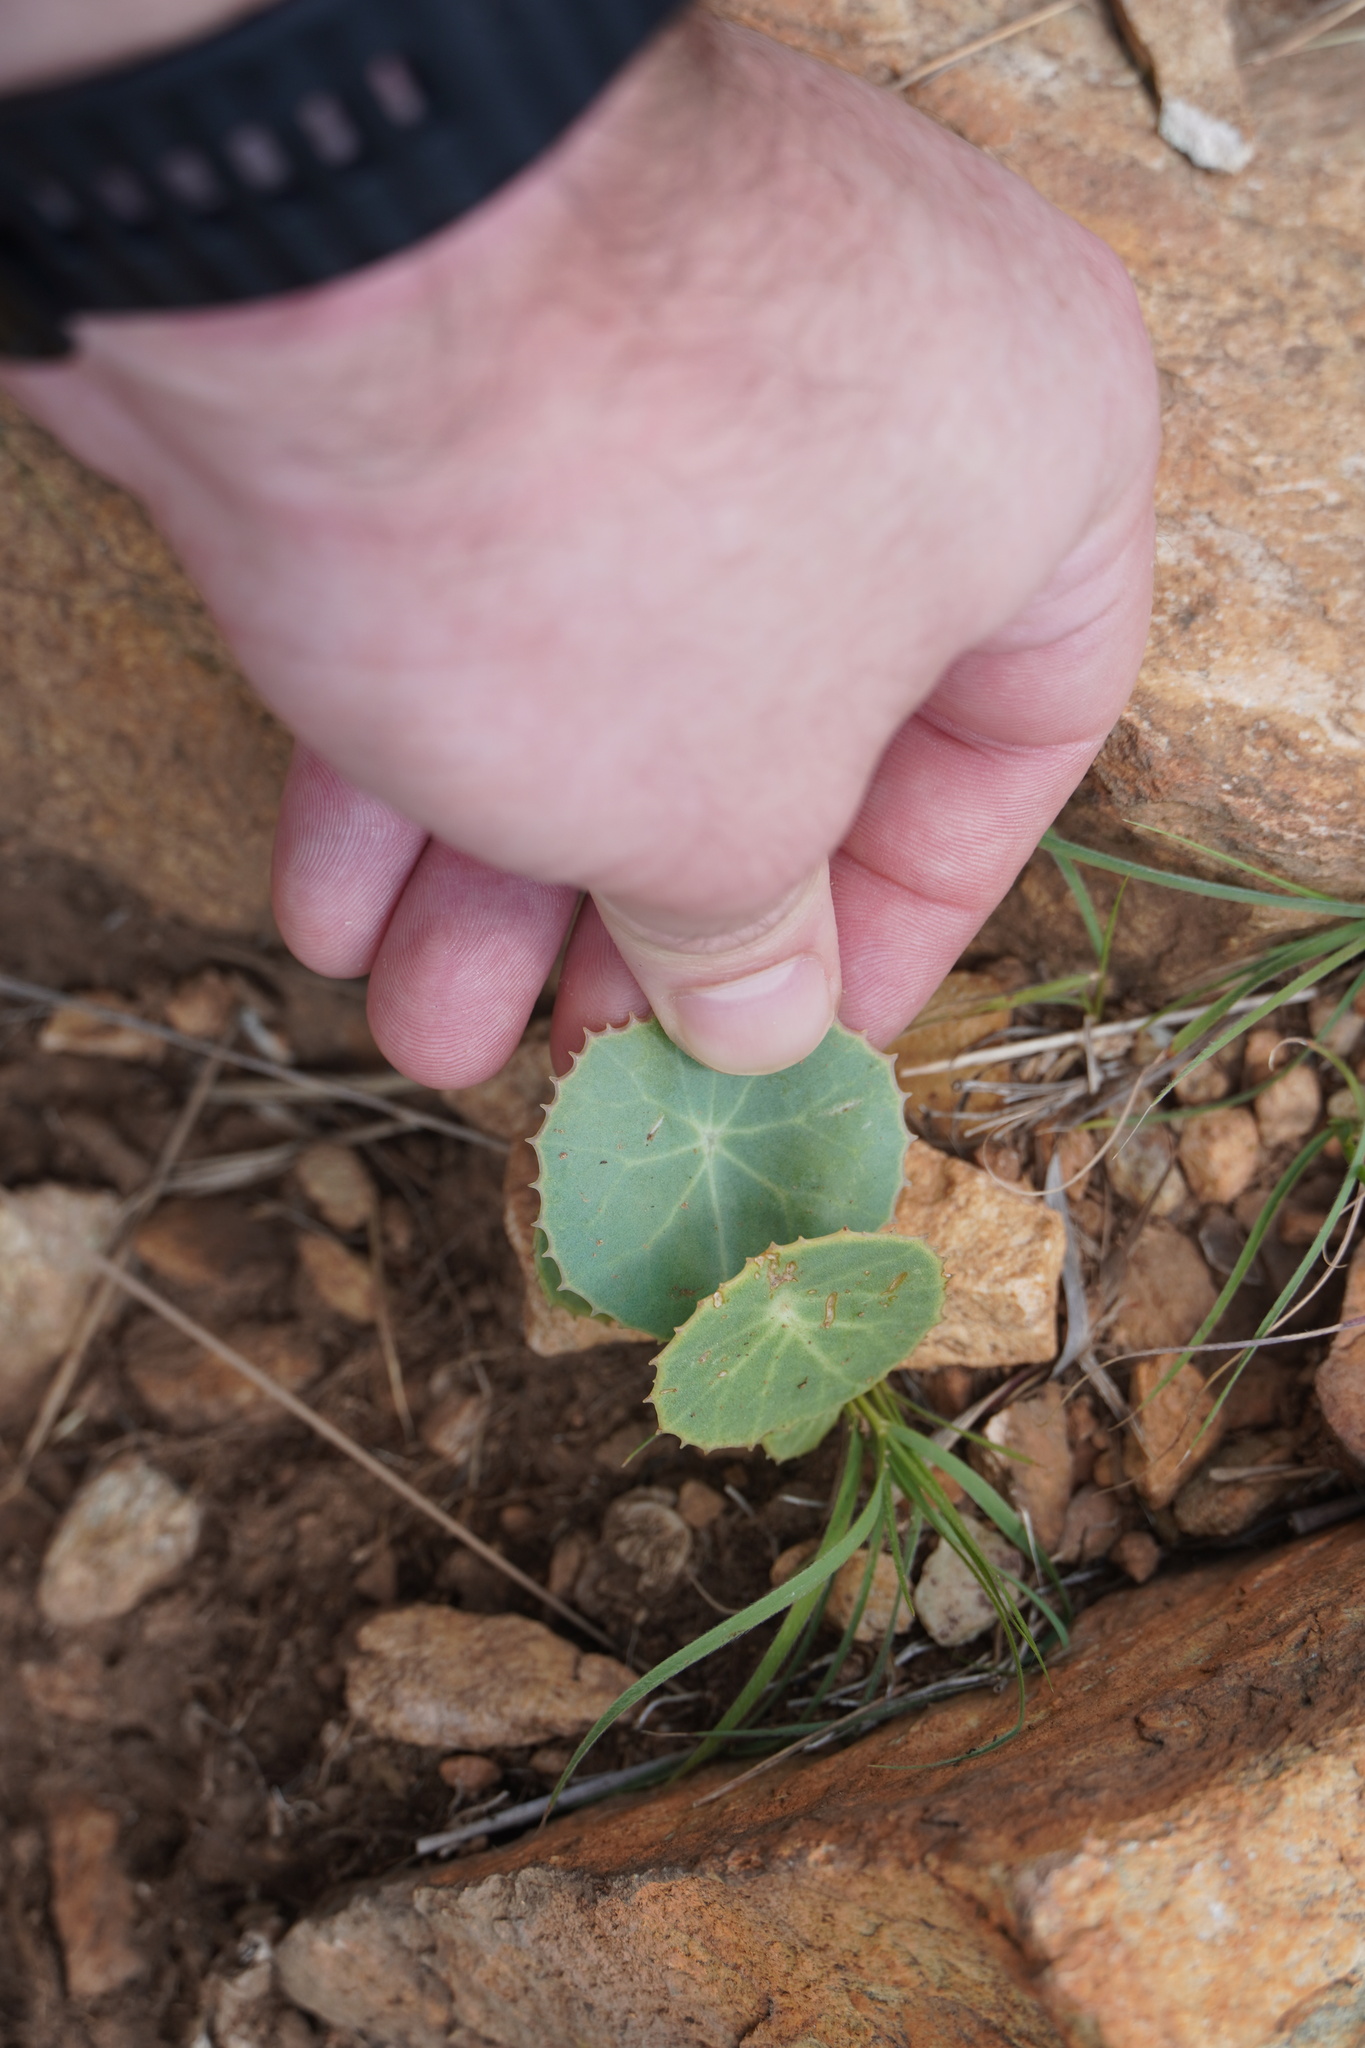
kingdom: Plantae
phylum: Tracheophyta
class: Magnoliopsida
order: Asterales
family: Asteraceae
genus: Senecio
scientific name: Senecio oxyriifolius
